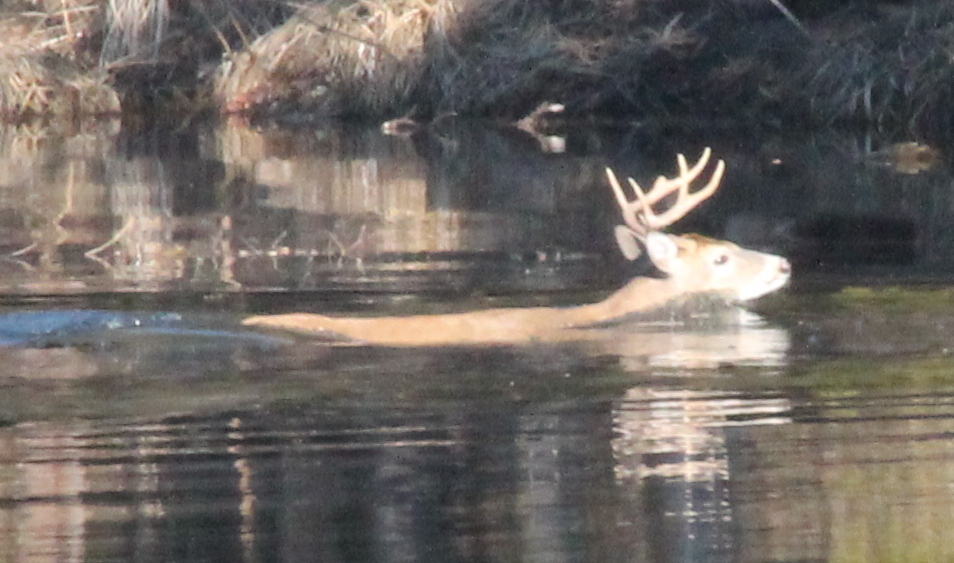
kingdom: Animalia
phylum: Chordata
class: Mammalia
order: Artiodactyla
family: Cervidae
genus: Odocoileus
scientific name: Odocoileus virginianus
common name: White-tailed deer
